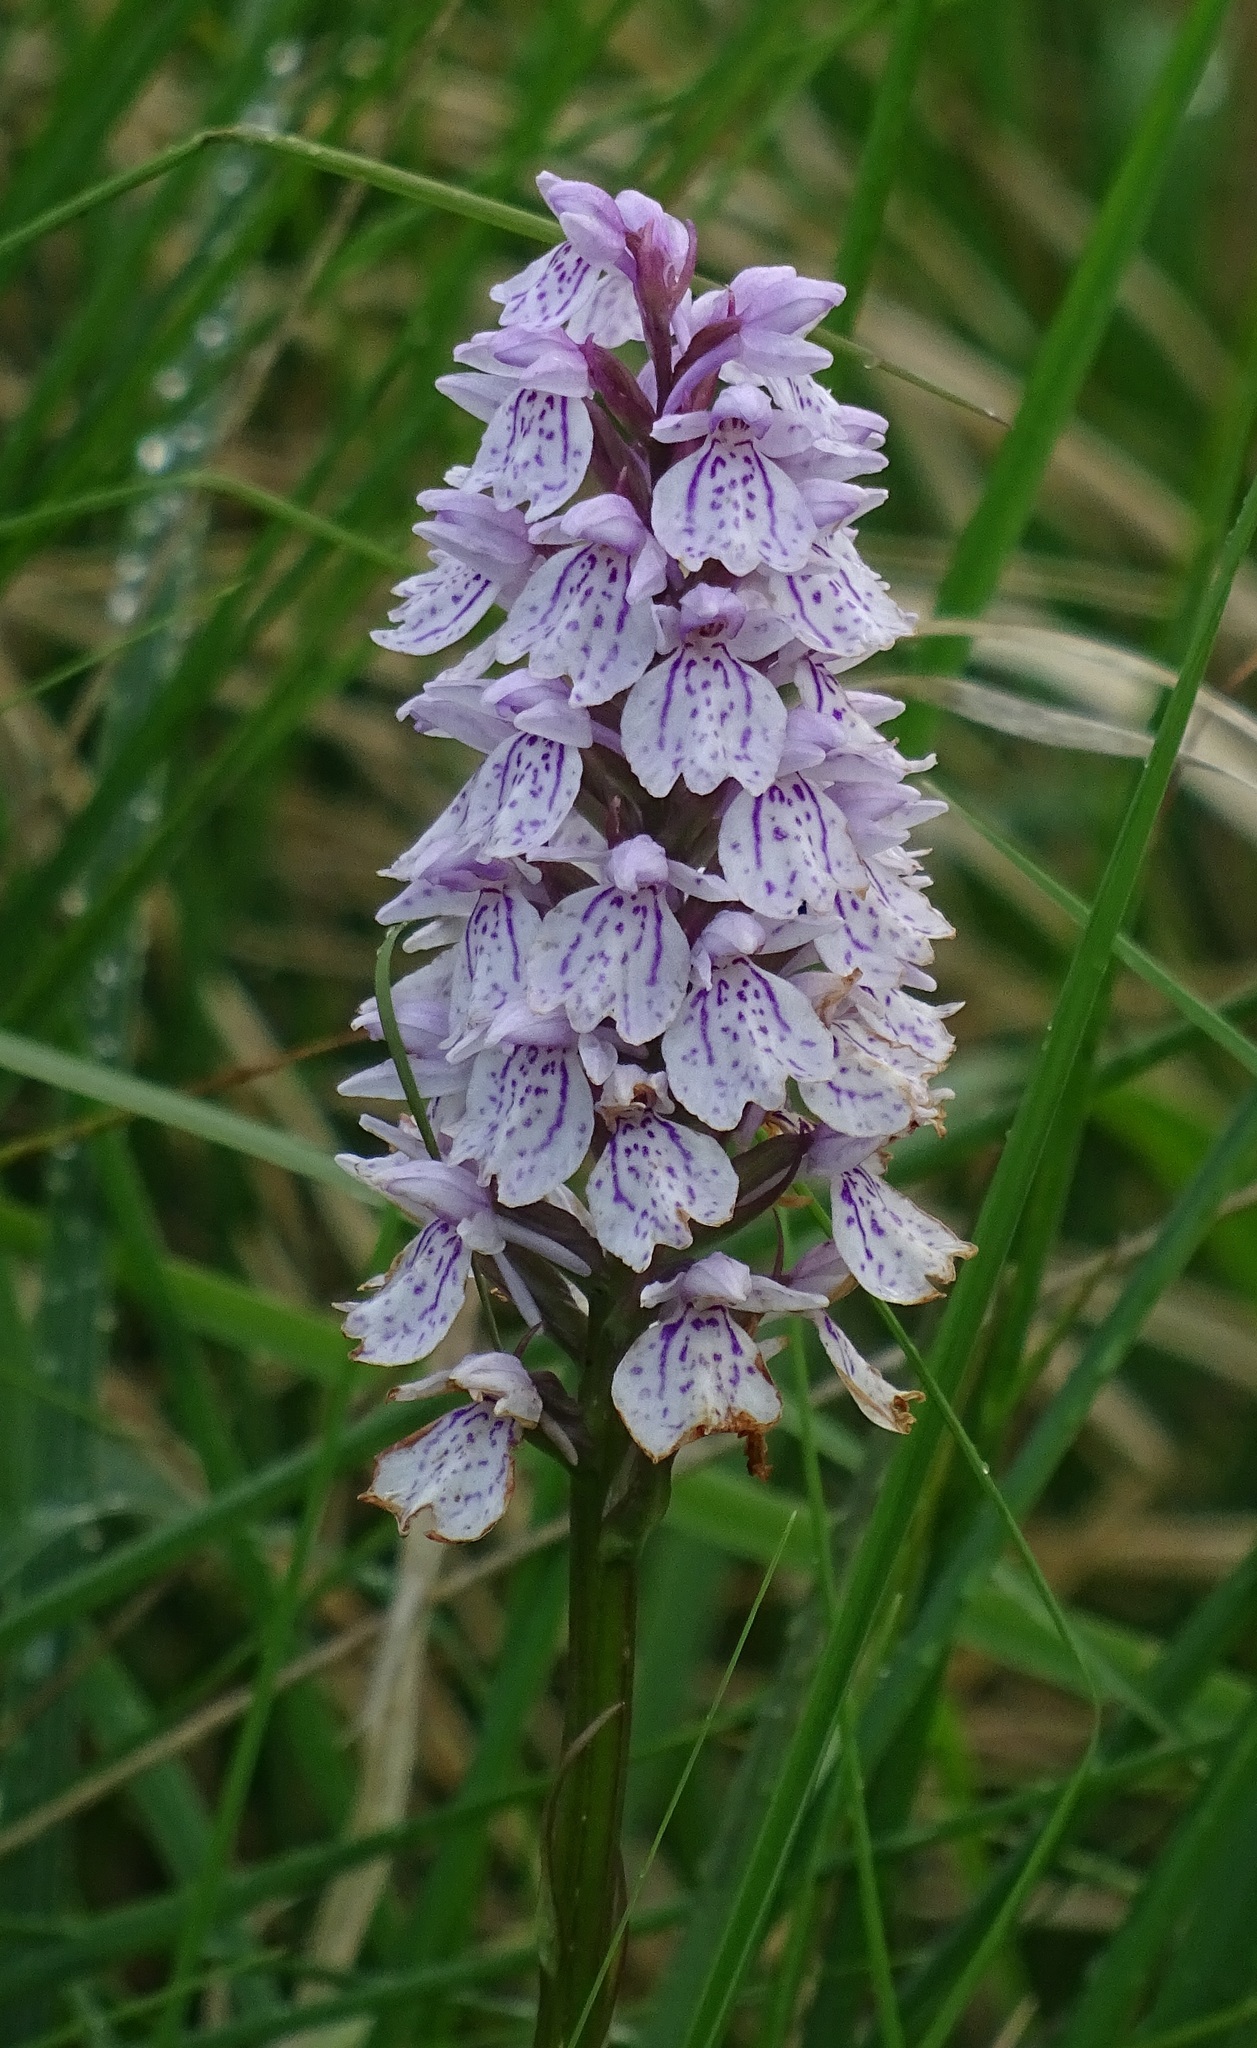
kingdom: Plantae
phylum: Tracheophyta
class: Liliopsida
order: Asparagales
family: Orchidaceae
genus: Dactylorhiza
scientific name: Dactylorhiza maculata
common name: Heath spotted-orchid
